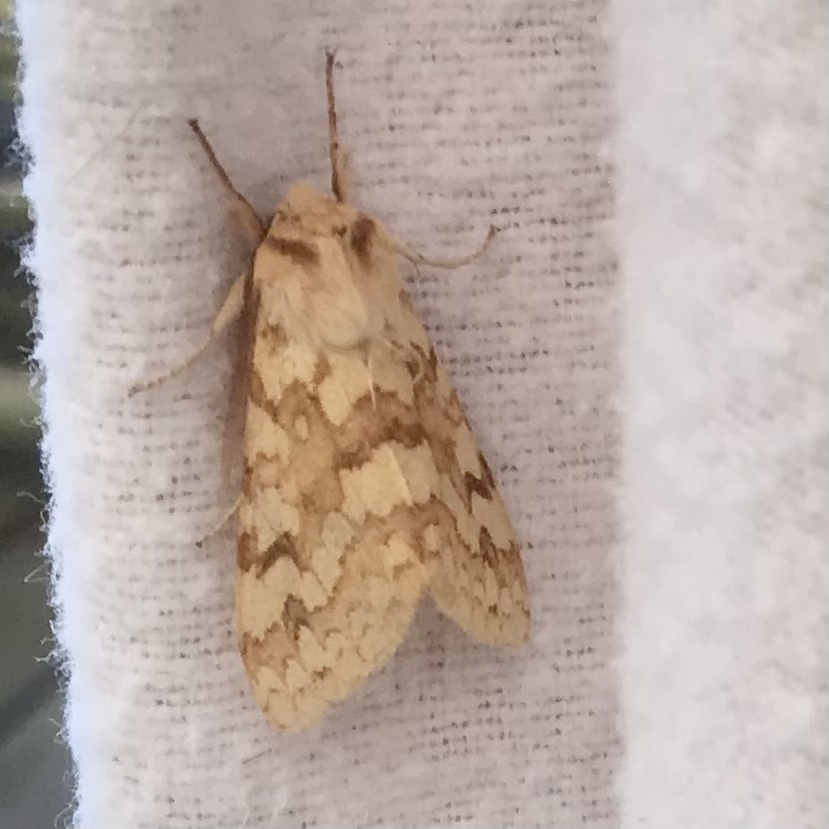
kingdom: Animalia
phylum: Arthropoda
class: Insecta
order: Lepidoptera
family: Erebidae
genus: Lophocampa
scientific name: Lophocampa maculata
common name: Spotted tussock moth
